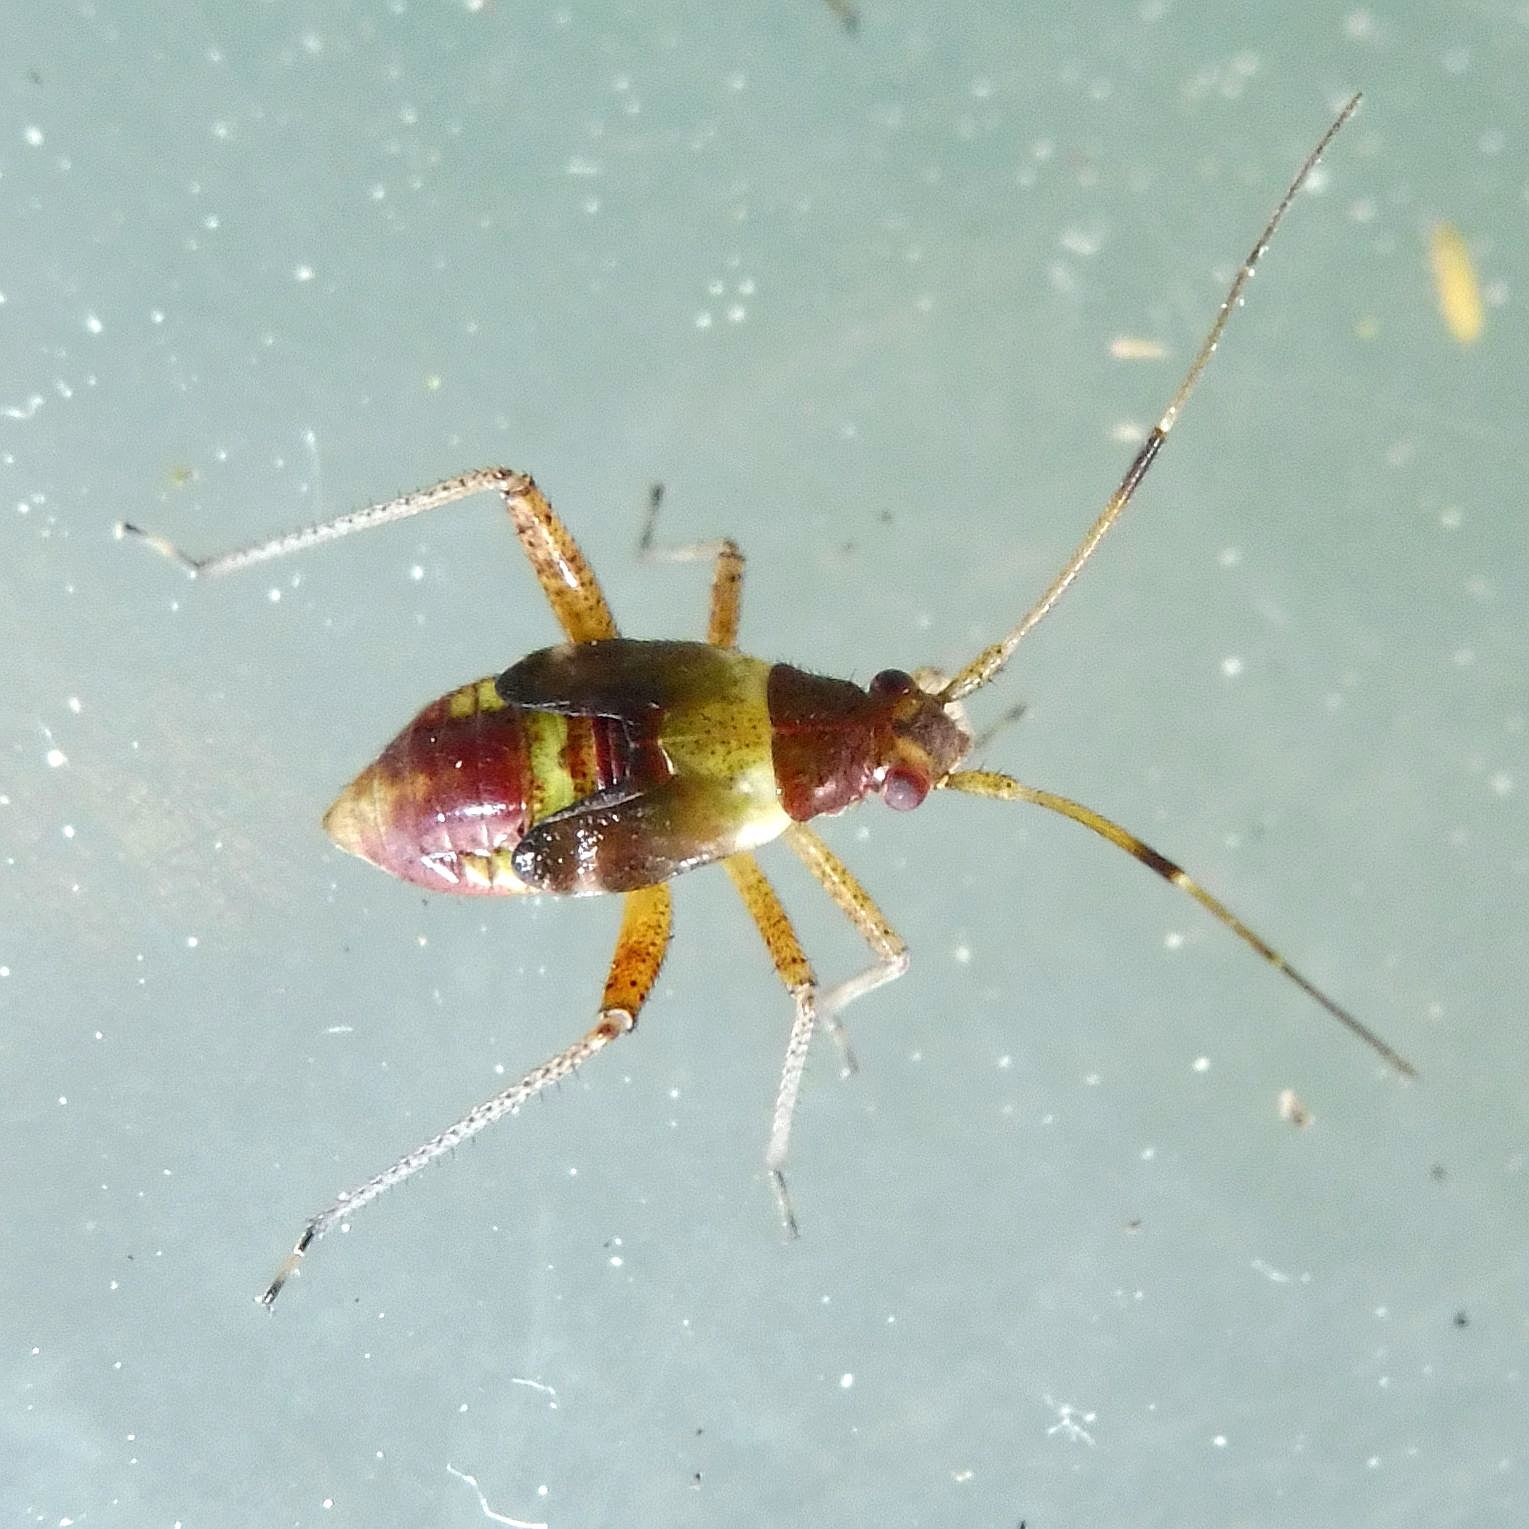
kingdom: Animalia
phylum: Arthropoda
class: Insecta
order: Hemiptera
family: Miridae
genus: Closterotomus
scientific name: Closterotomus fulvomaculatus
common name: Spotted plant bug
